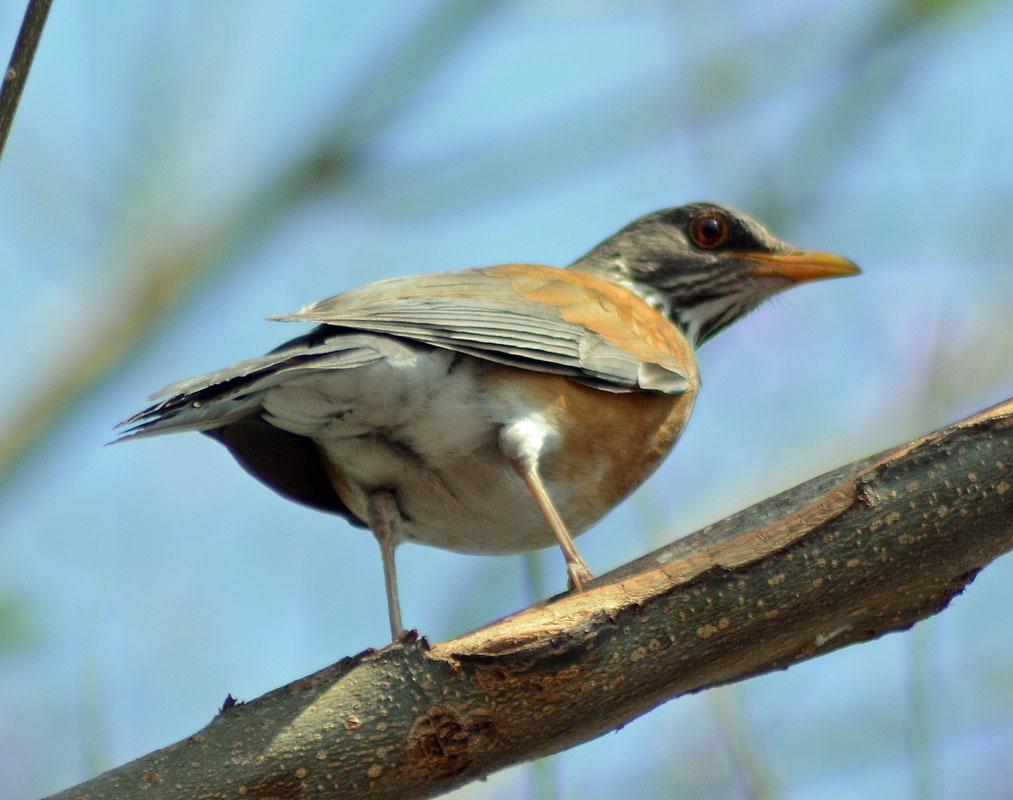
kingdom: Animalia
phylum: Chordata
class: Aves
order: Passeriformes
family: Turdidae
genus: Turdus
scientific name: Turdus rufopalliatus
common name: Rufous-backed robin
